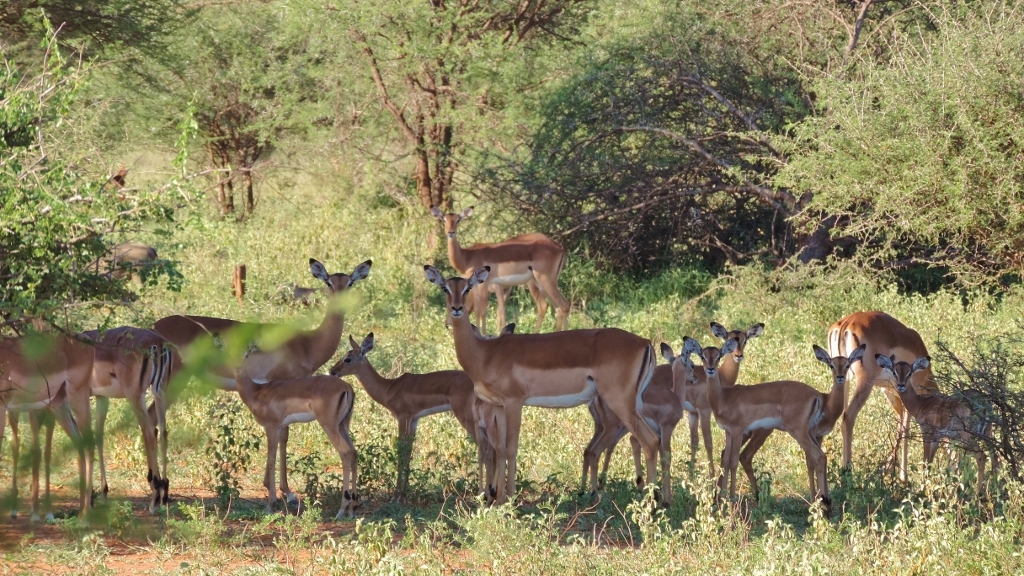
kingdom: Animalia
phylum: Chordata
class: Mammalia
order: Artiodactyla
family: Bovidae
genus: Aepyceros
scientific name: Aepyceros melampus
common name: Impala
